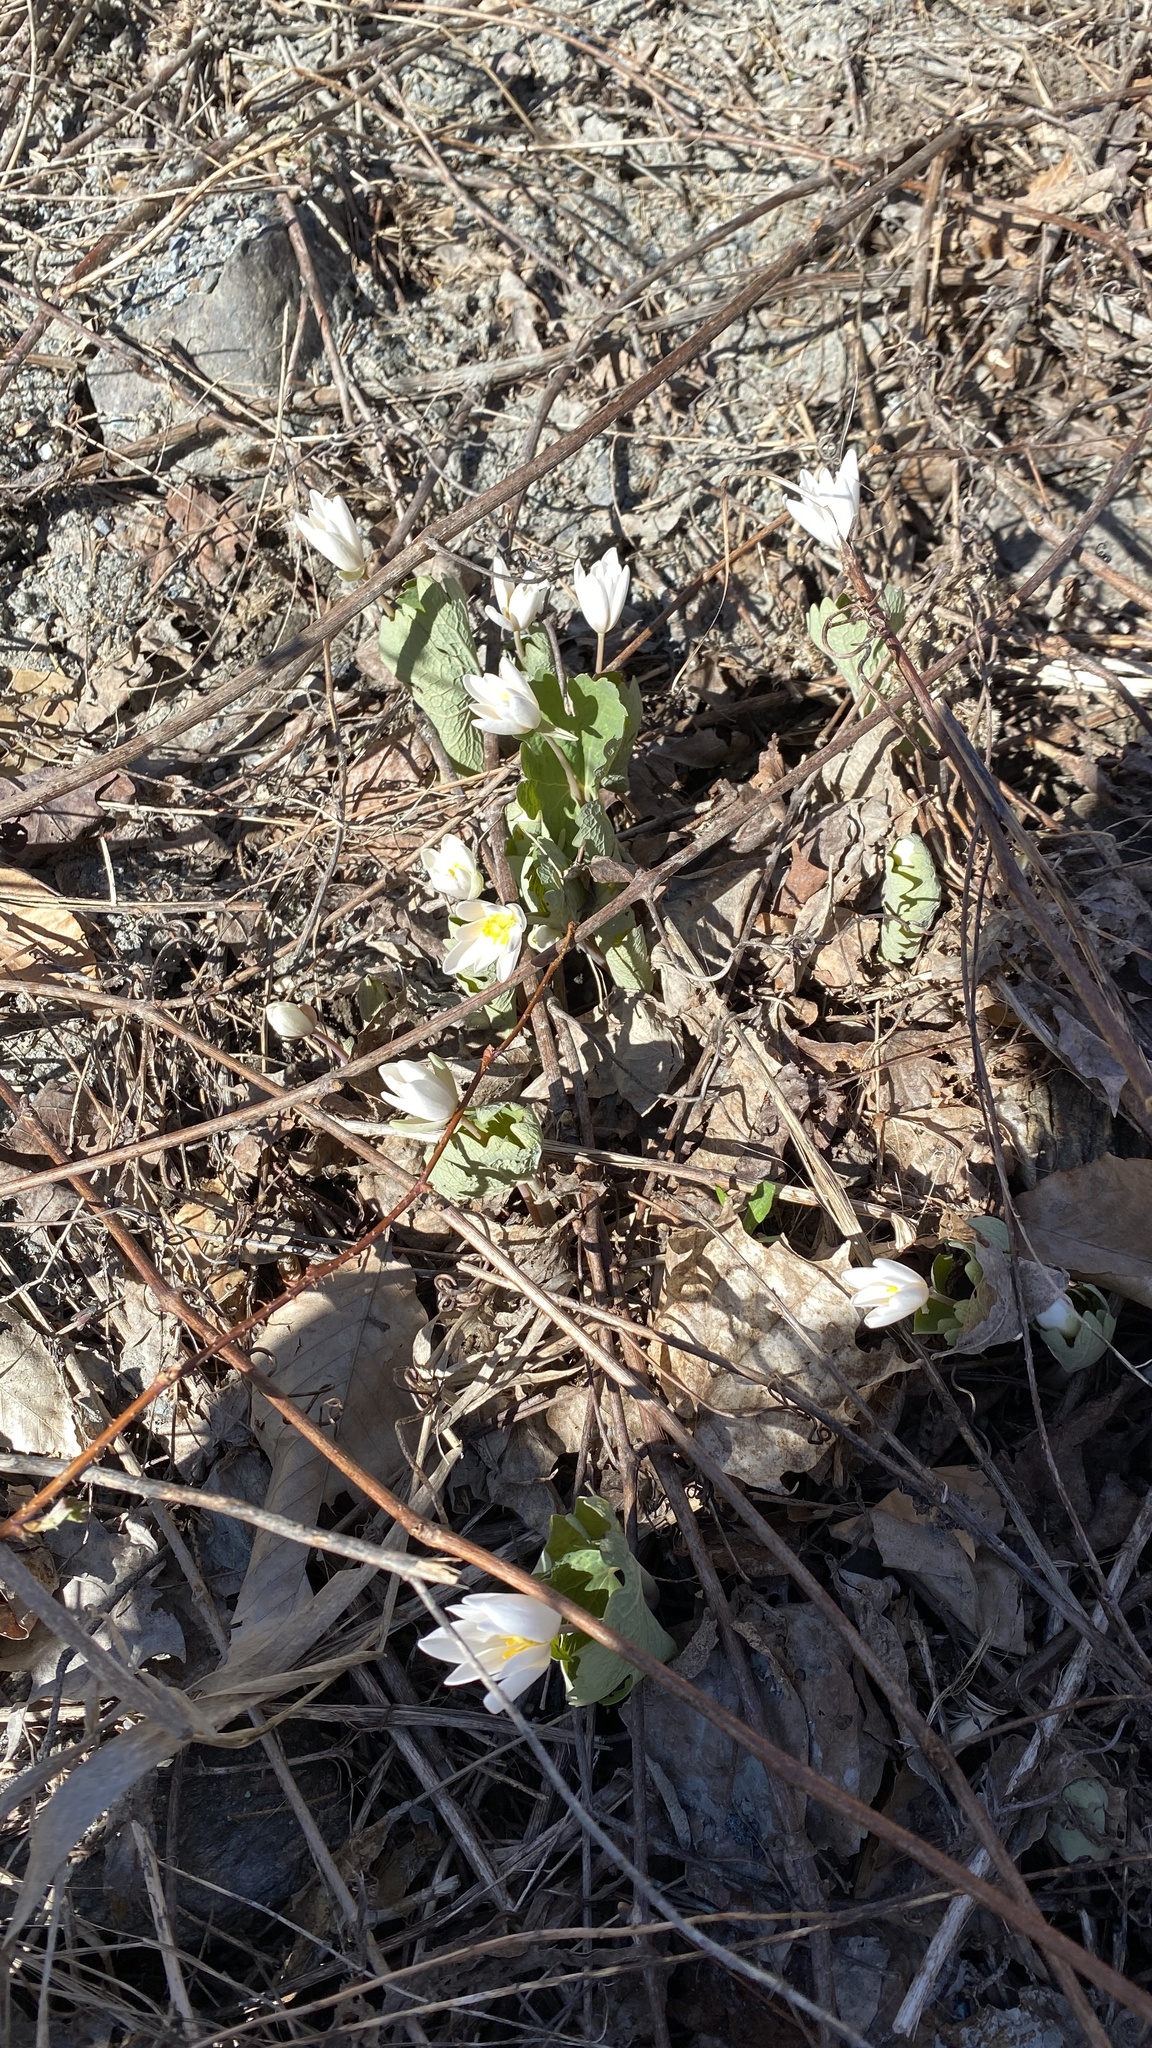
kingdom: Plantae
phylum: Tracheophyta
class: Magnoliopsida
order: Ranunculales
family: Papaveraceae
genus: Sanguinaria
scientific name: Sanguinaria canadensis
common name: Bloodroot
